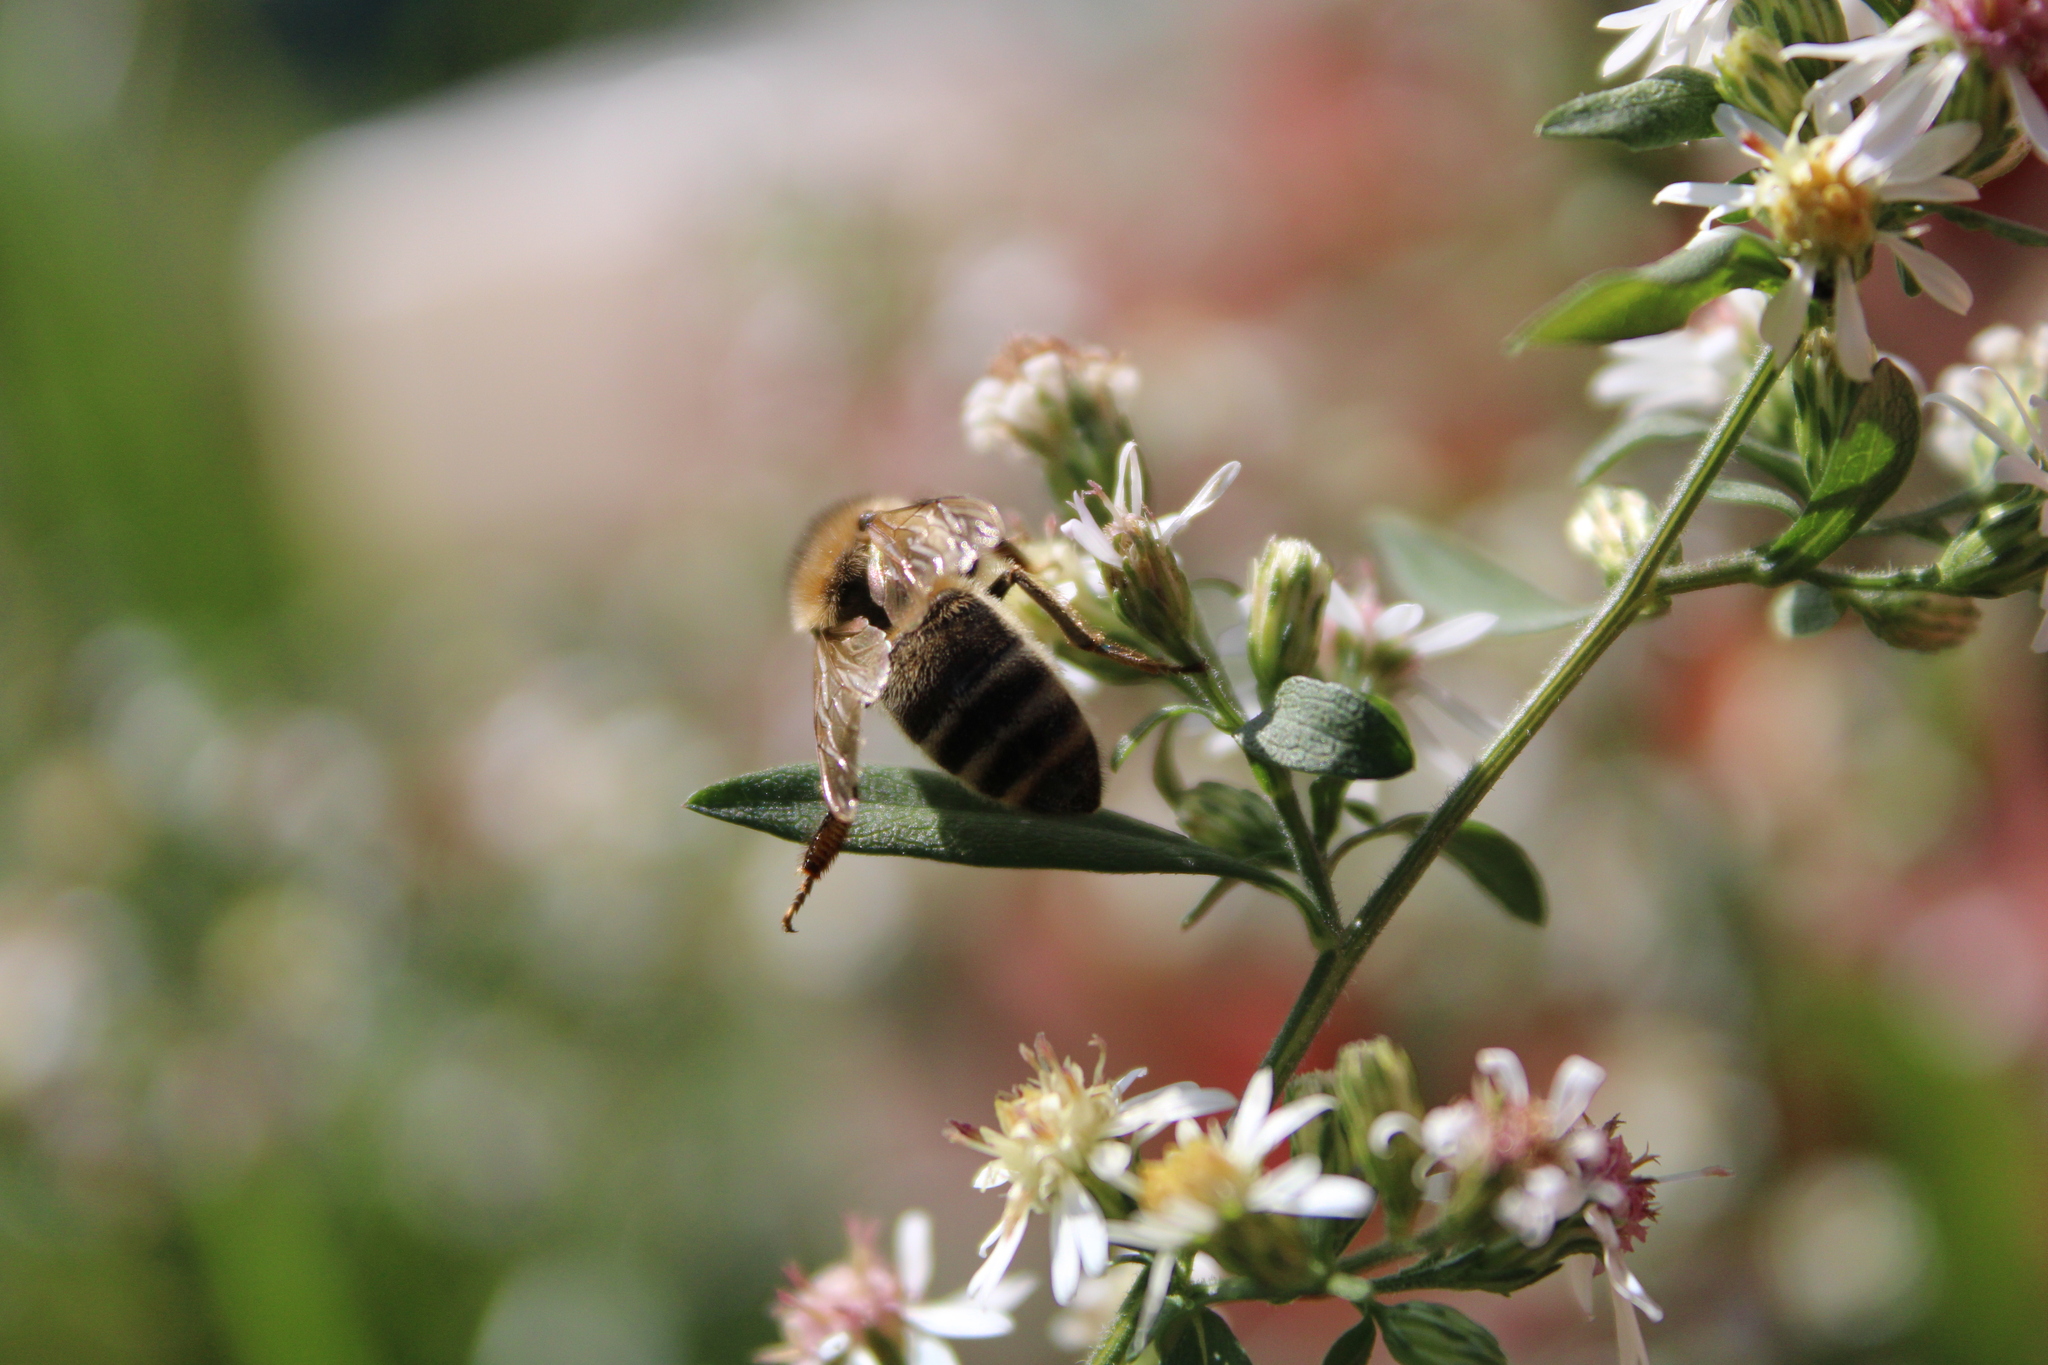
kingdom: Animalia
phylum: Arthropoda
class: Insecta
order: Hymenoptera
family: Apidae
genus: Apis
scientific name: Apis mellifera
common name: Honey bee
